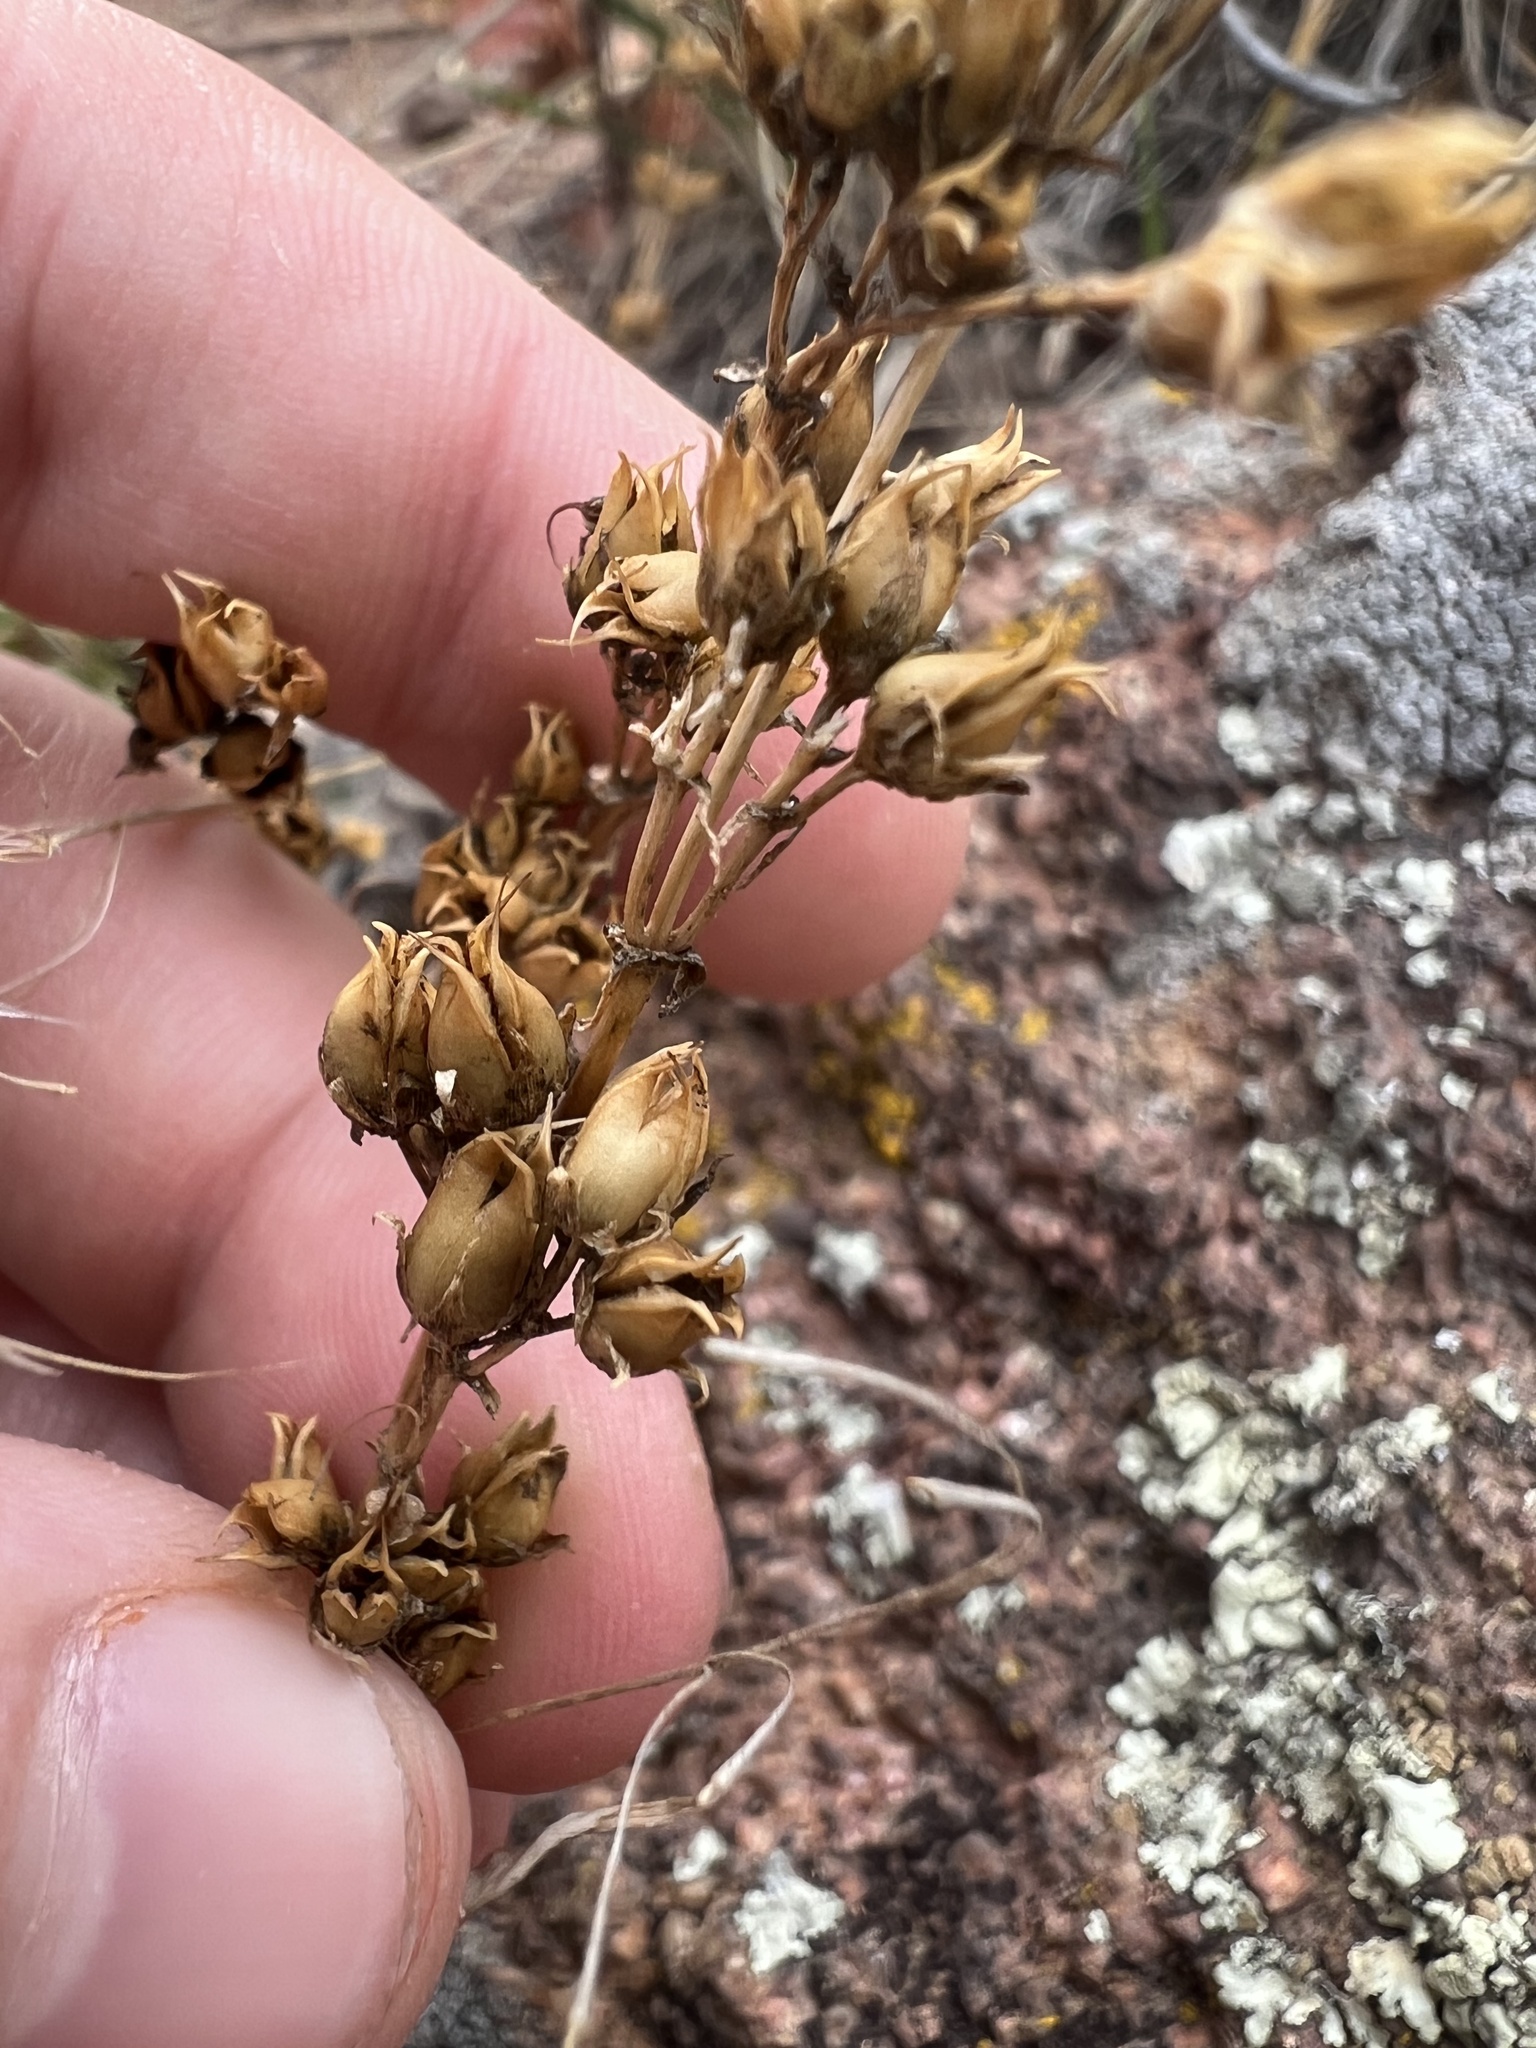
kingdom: Plantae
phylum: Tracheophyta
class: Magnoliopsida
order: Lamiales
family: Plantaginaceae
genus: Penstemon
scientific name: Penstemon virens
